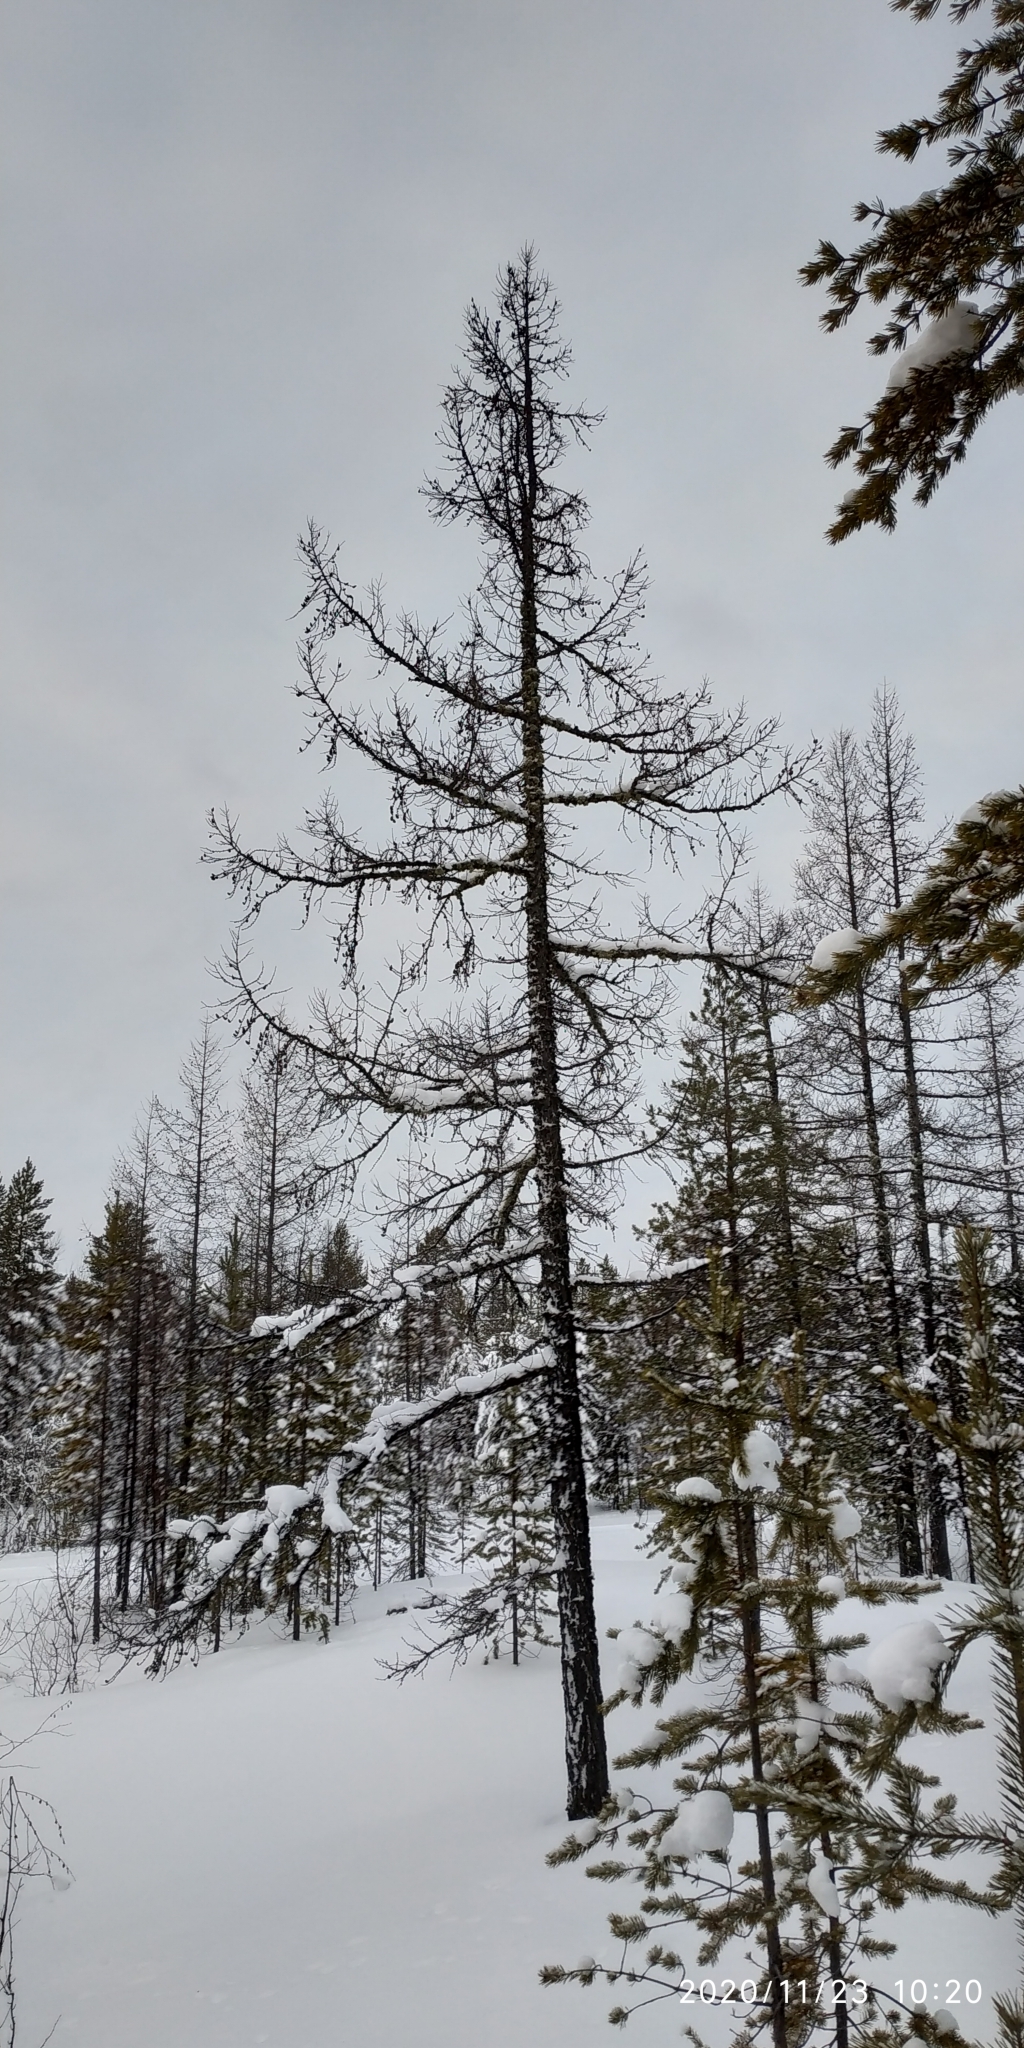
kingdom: Plantae
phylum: Tracheophyta
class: Pinopsida
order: Pinales
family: Pinaceae
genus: Larix
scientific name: Larix sibirica
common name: Siberian larch
